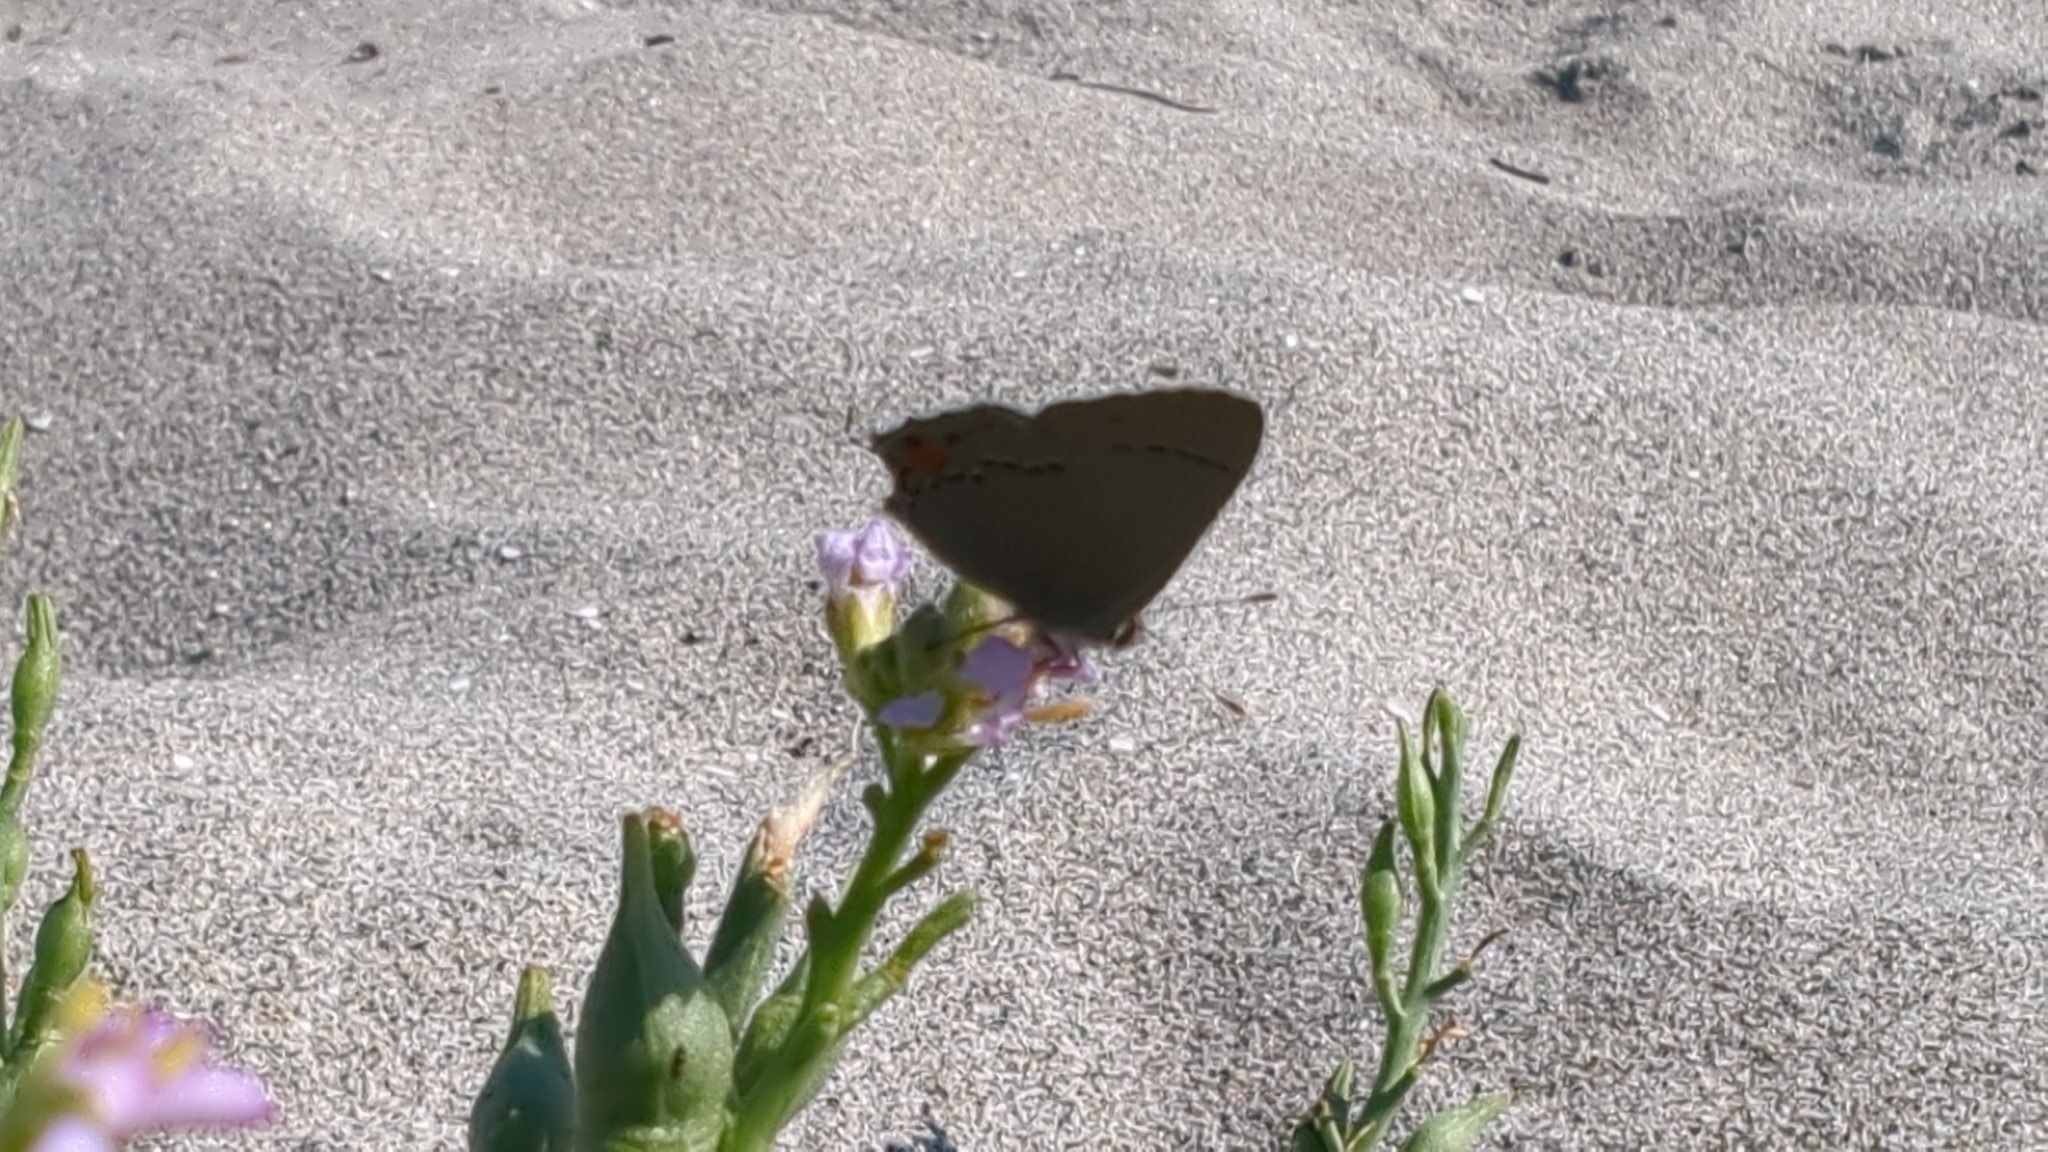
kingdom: Animalia
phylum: Arthropoda
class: Insecta
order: Lepidoptera
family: Lycaenidae
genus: Strymon
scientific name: Strymon melinus
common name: Gray hairstreak
